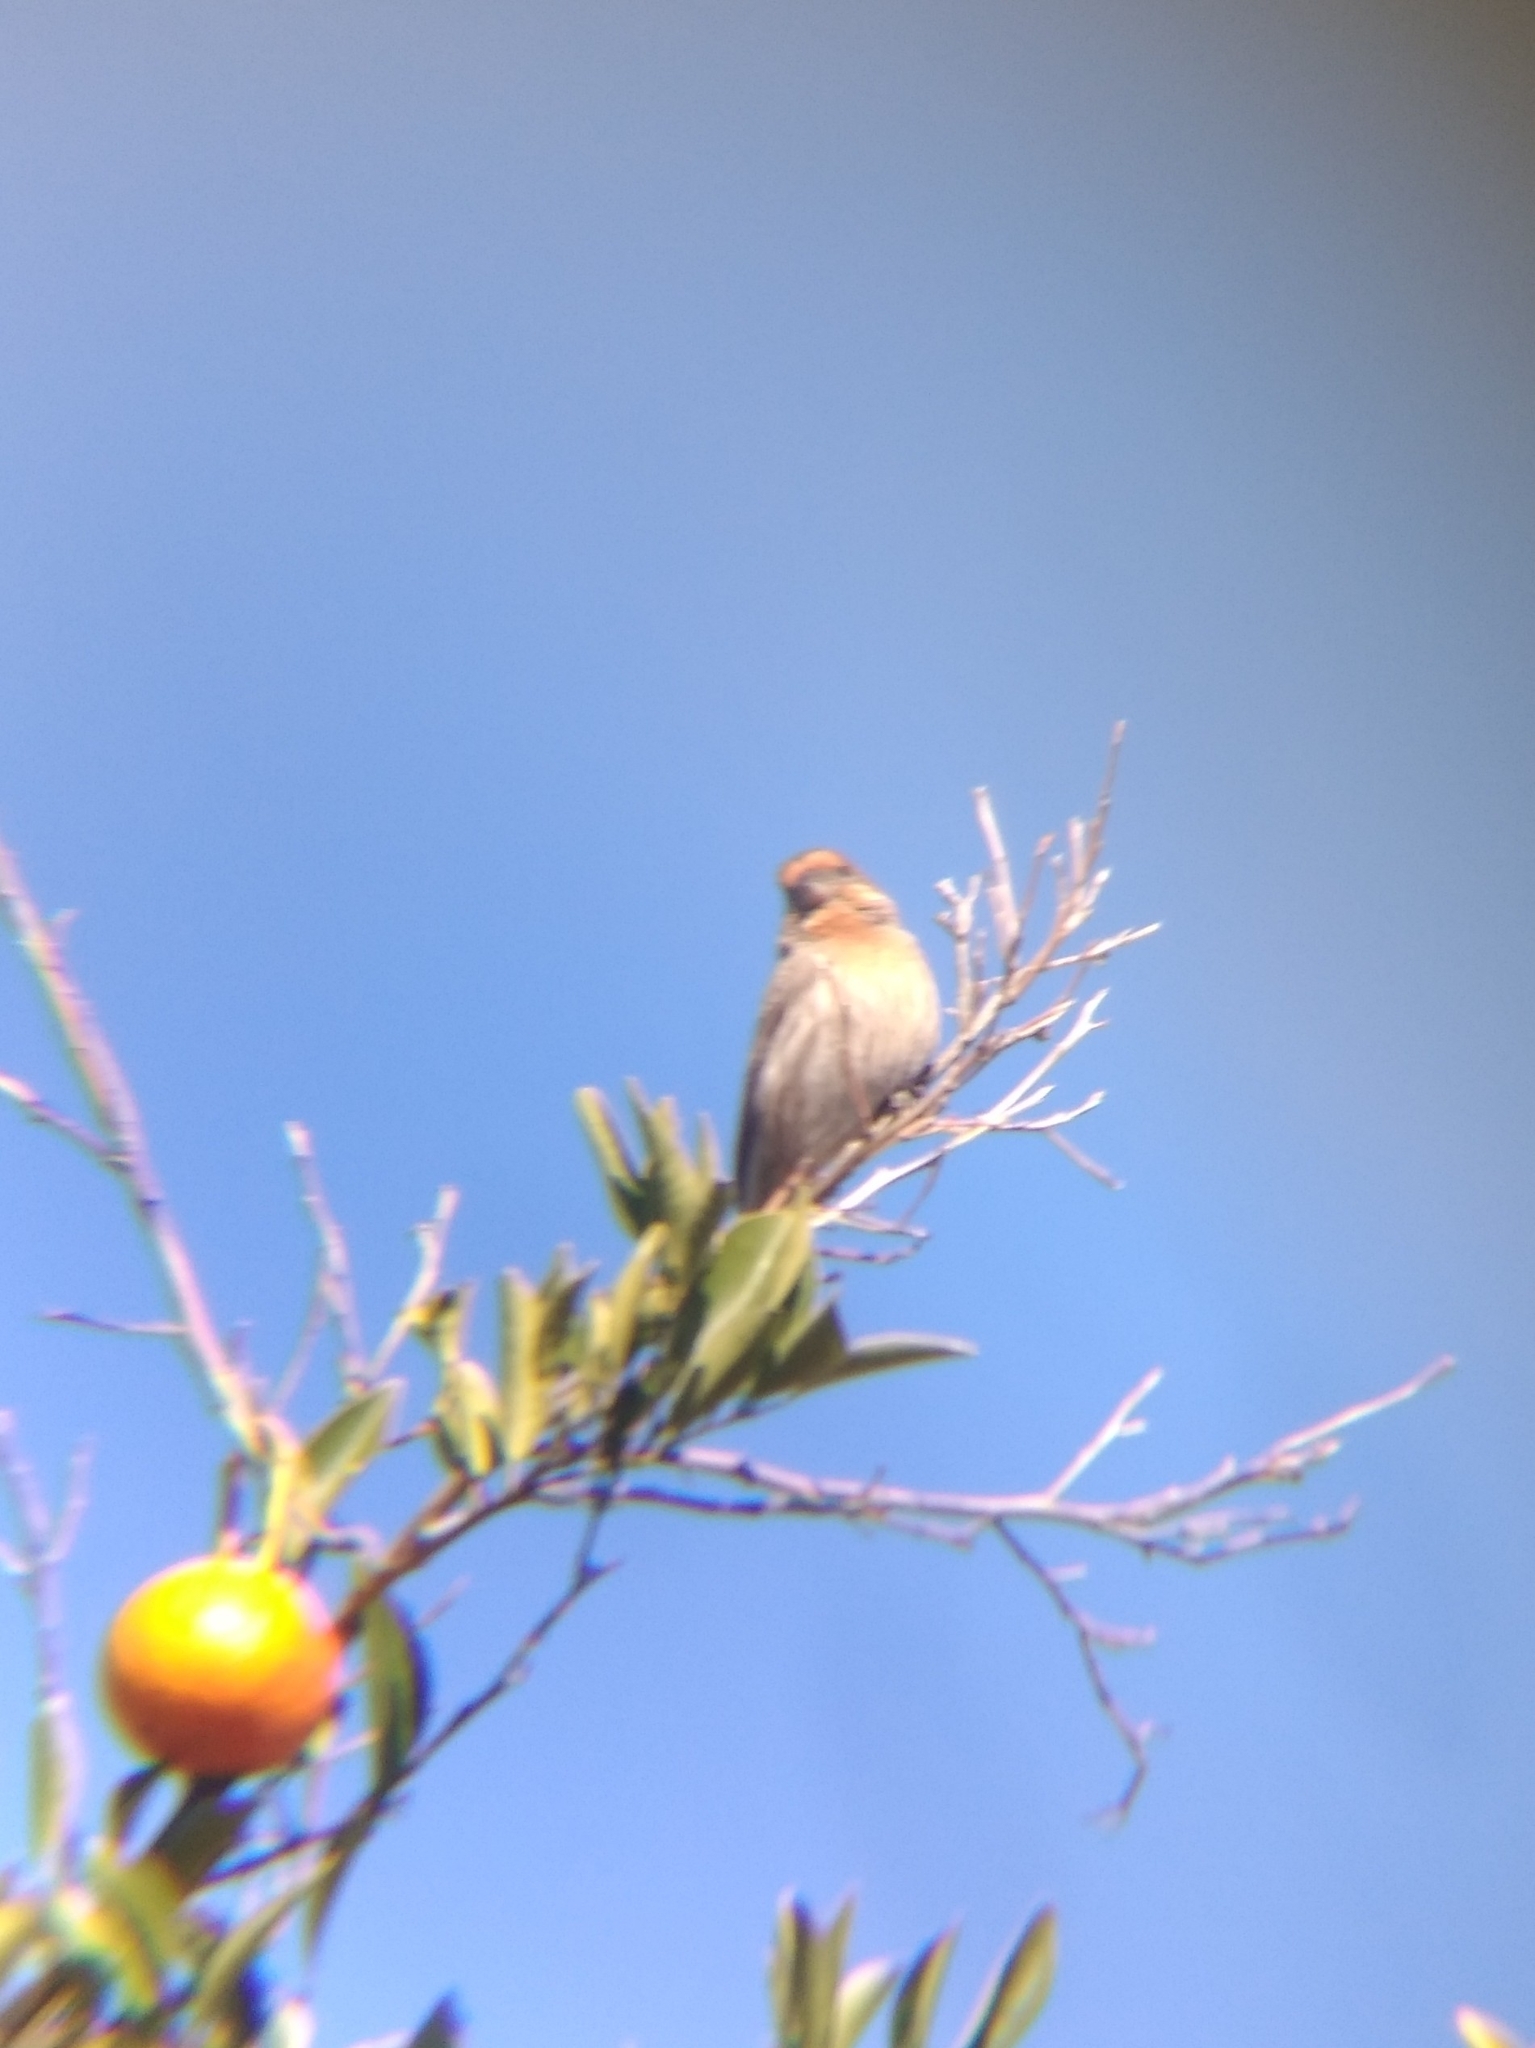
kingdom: Animalia
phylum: Chordata
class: Aves
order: Passeriformes
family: Fringillidae
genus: Haemorhous
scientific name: Haemorhous mexicanus
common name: House finch
